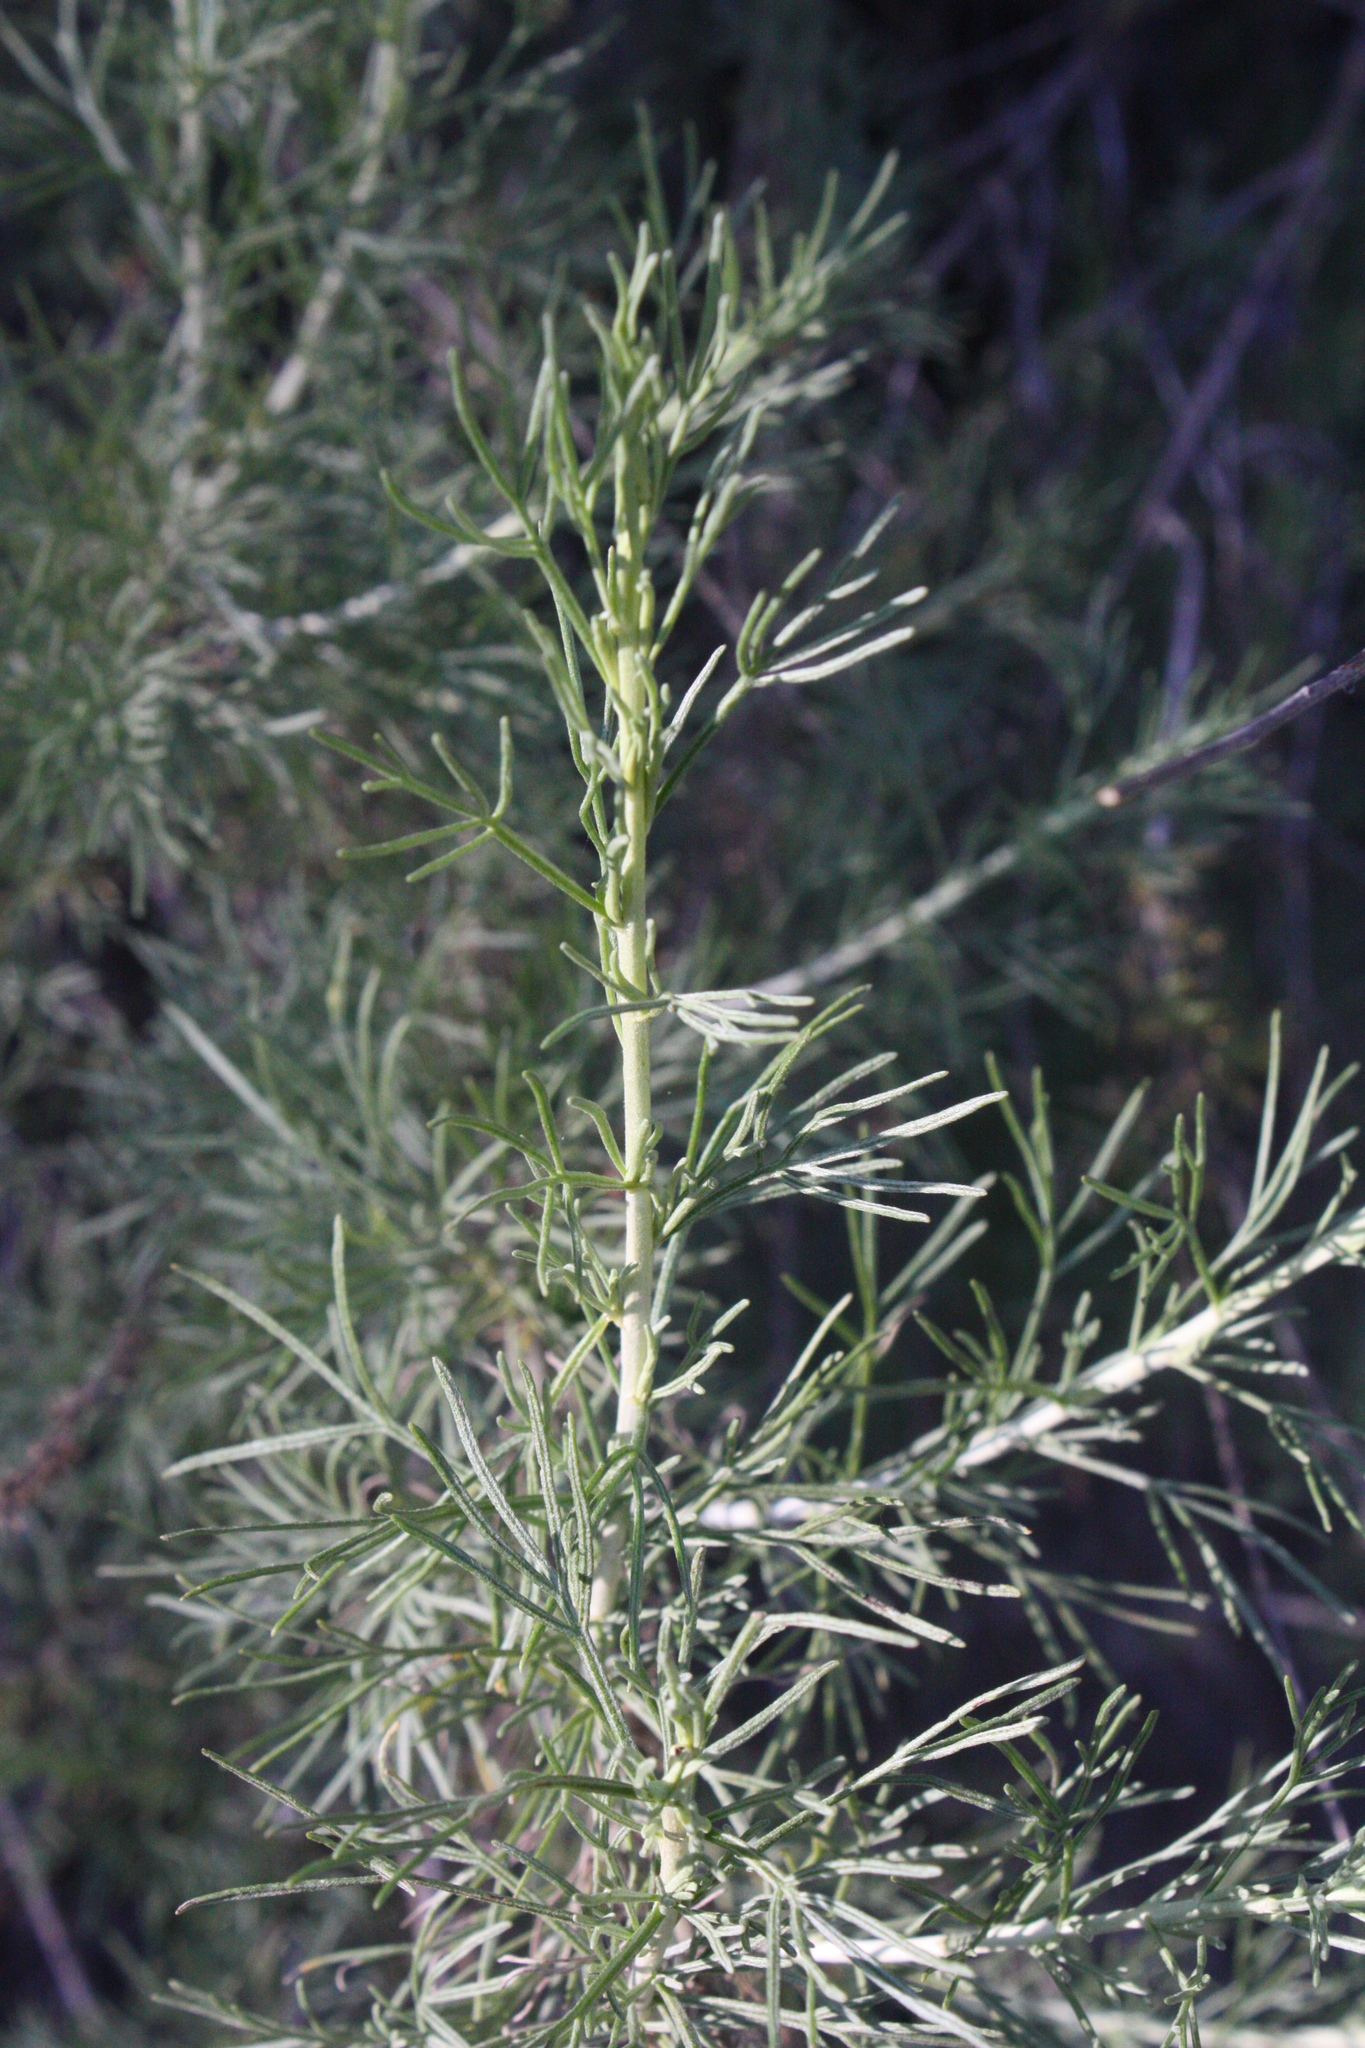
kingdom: Plantae
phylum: Tracheophyta
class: Magnoliopsida
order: Asterales
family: Asteraceae
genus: Artemisia
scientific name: Artemisia californica
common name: California sagebrush
